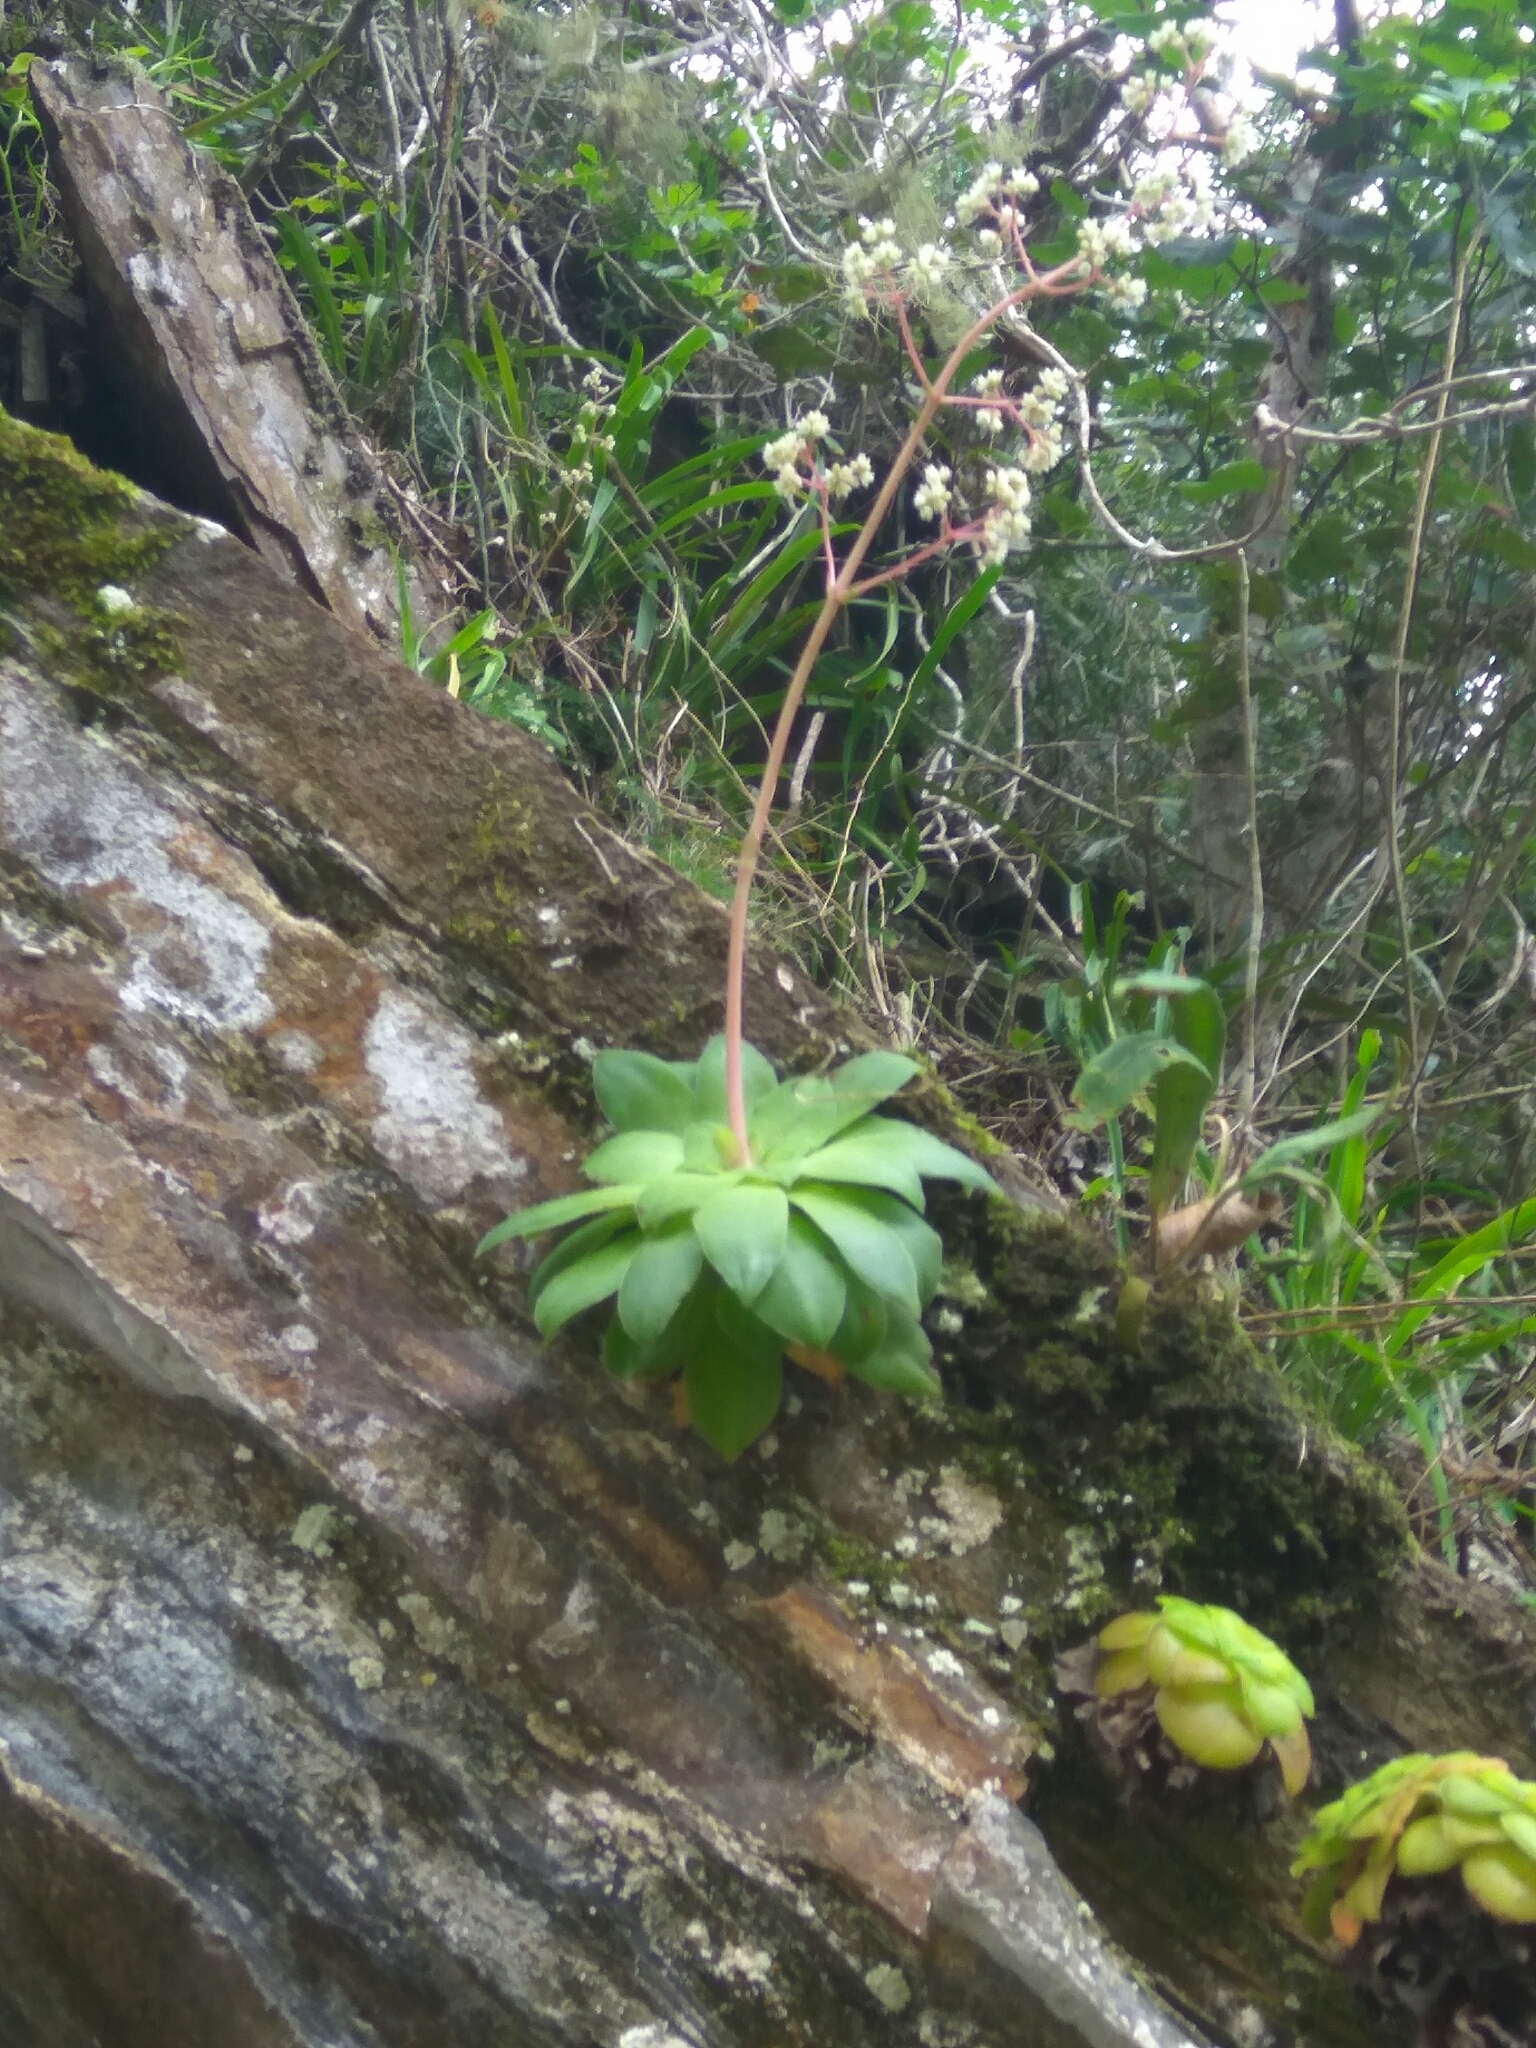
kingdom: Plantae
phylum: Tracheophyta
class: Magnoliopsida
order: Saxifragales
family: Crassulaceae
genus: Crassula
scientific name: Crassula orbicularis
